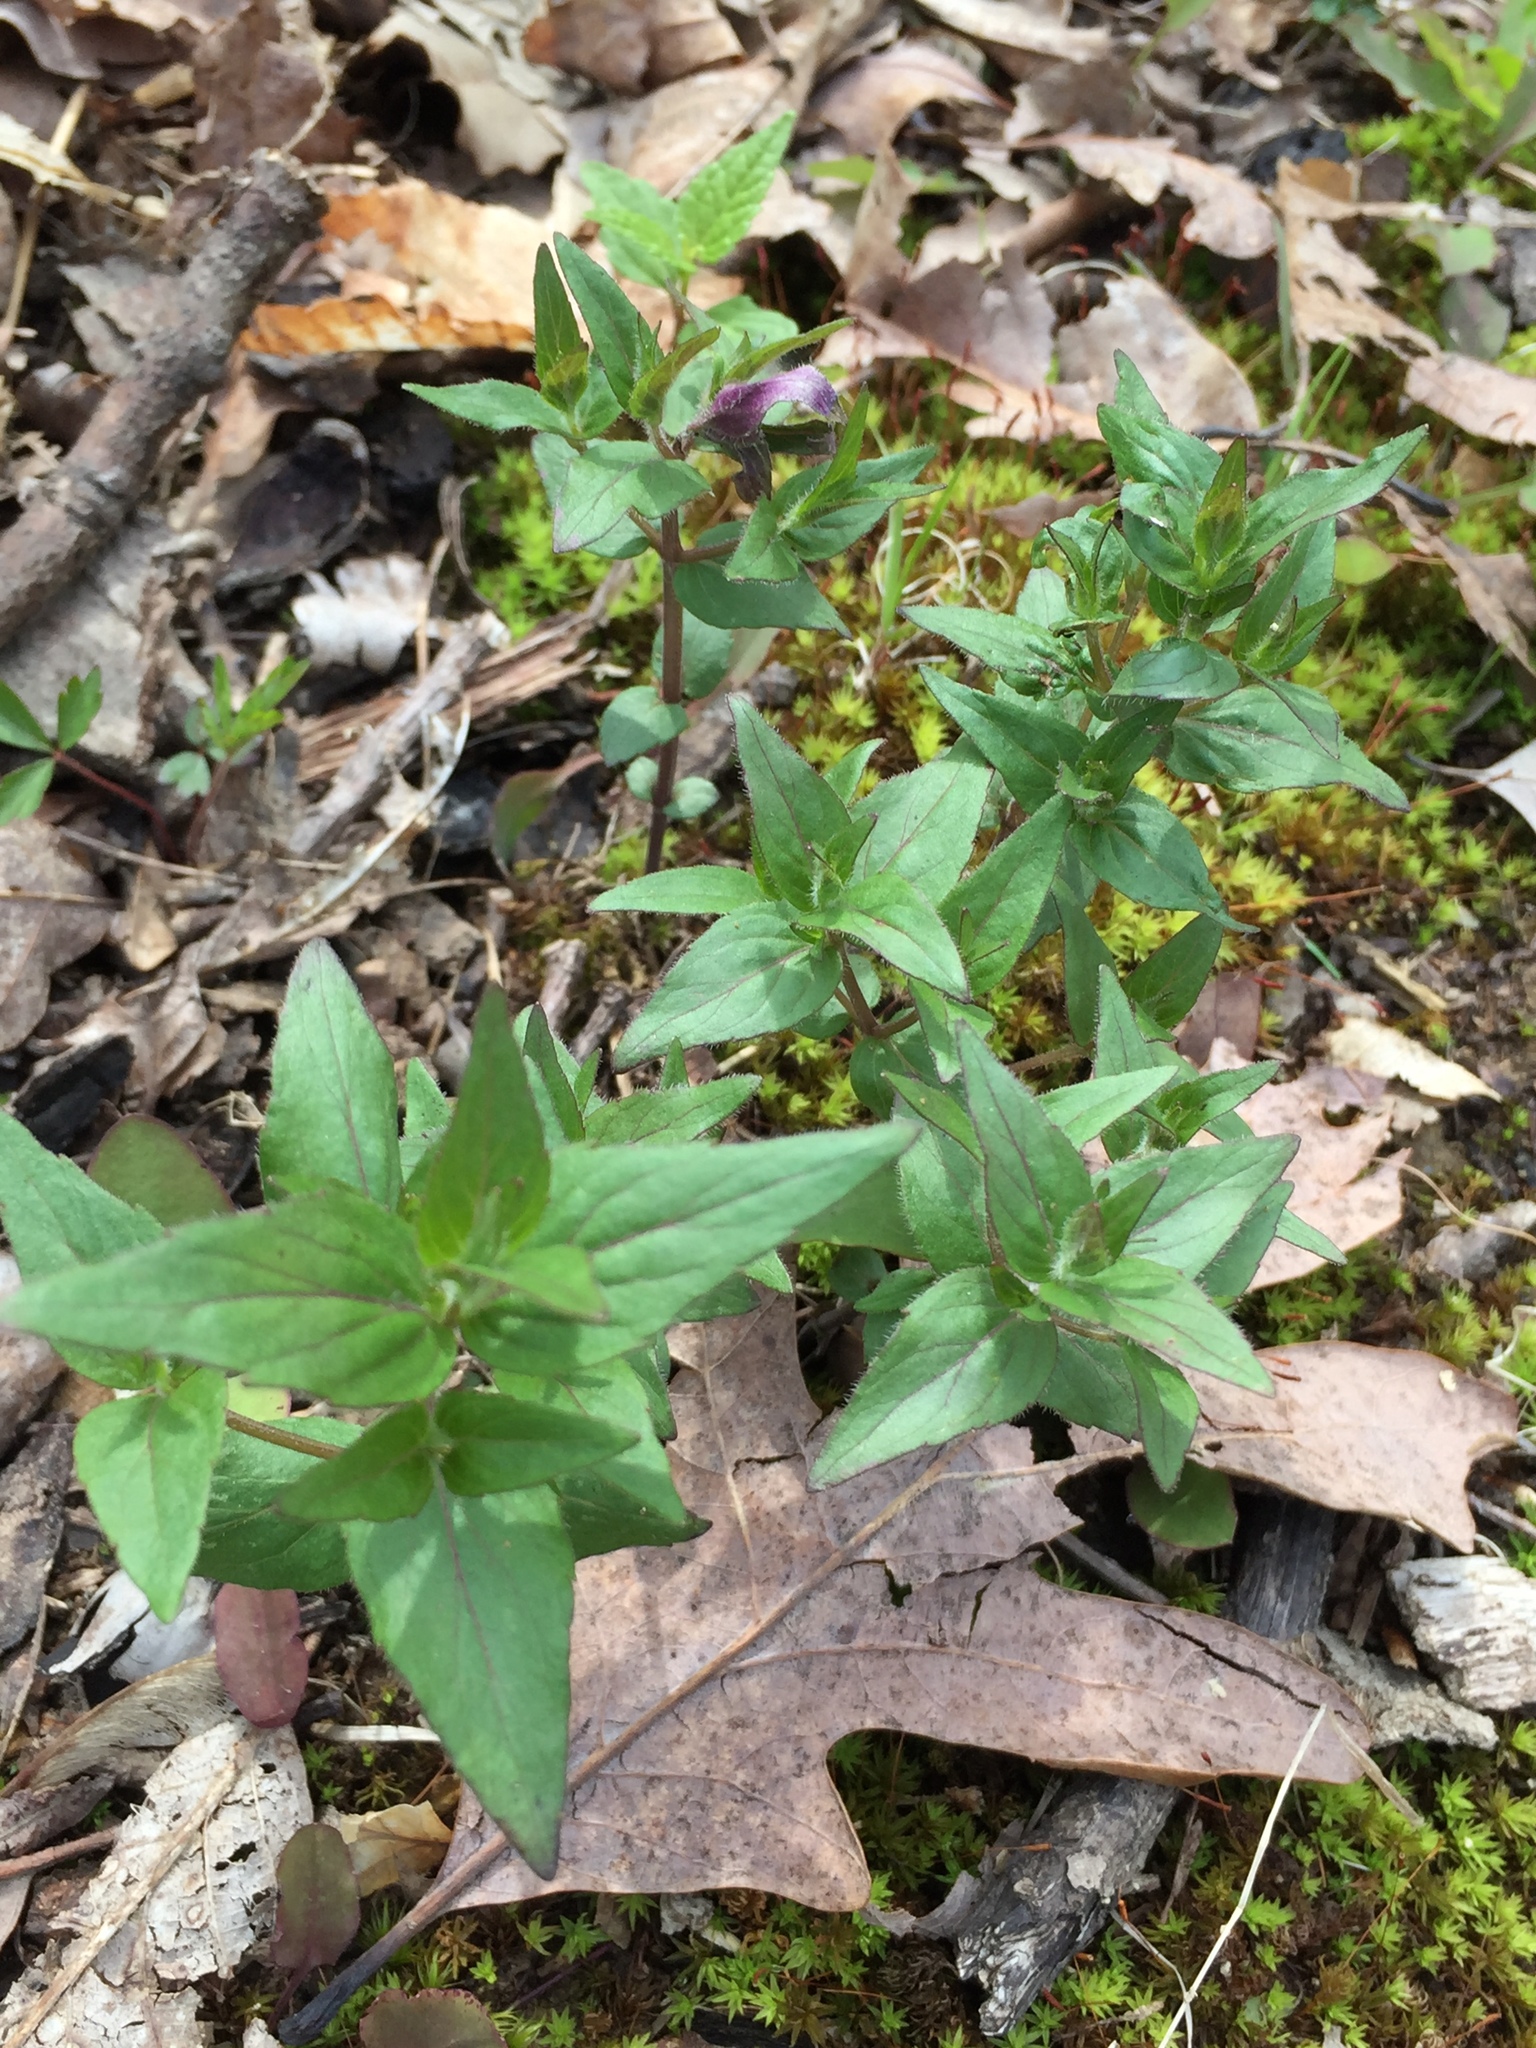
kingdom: Plantae
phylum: Tracheophyta
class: Magnoliopsida
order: Lamiales
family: Lamiaceae
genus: Cunila
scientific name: Cunila origanoides
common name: American dittany
